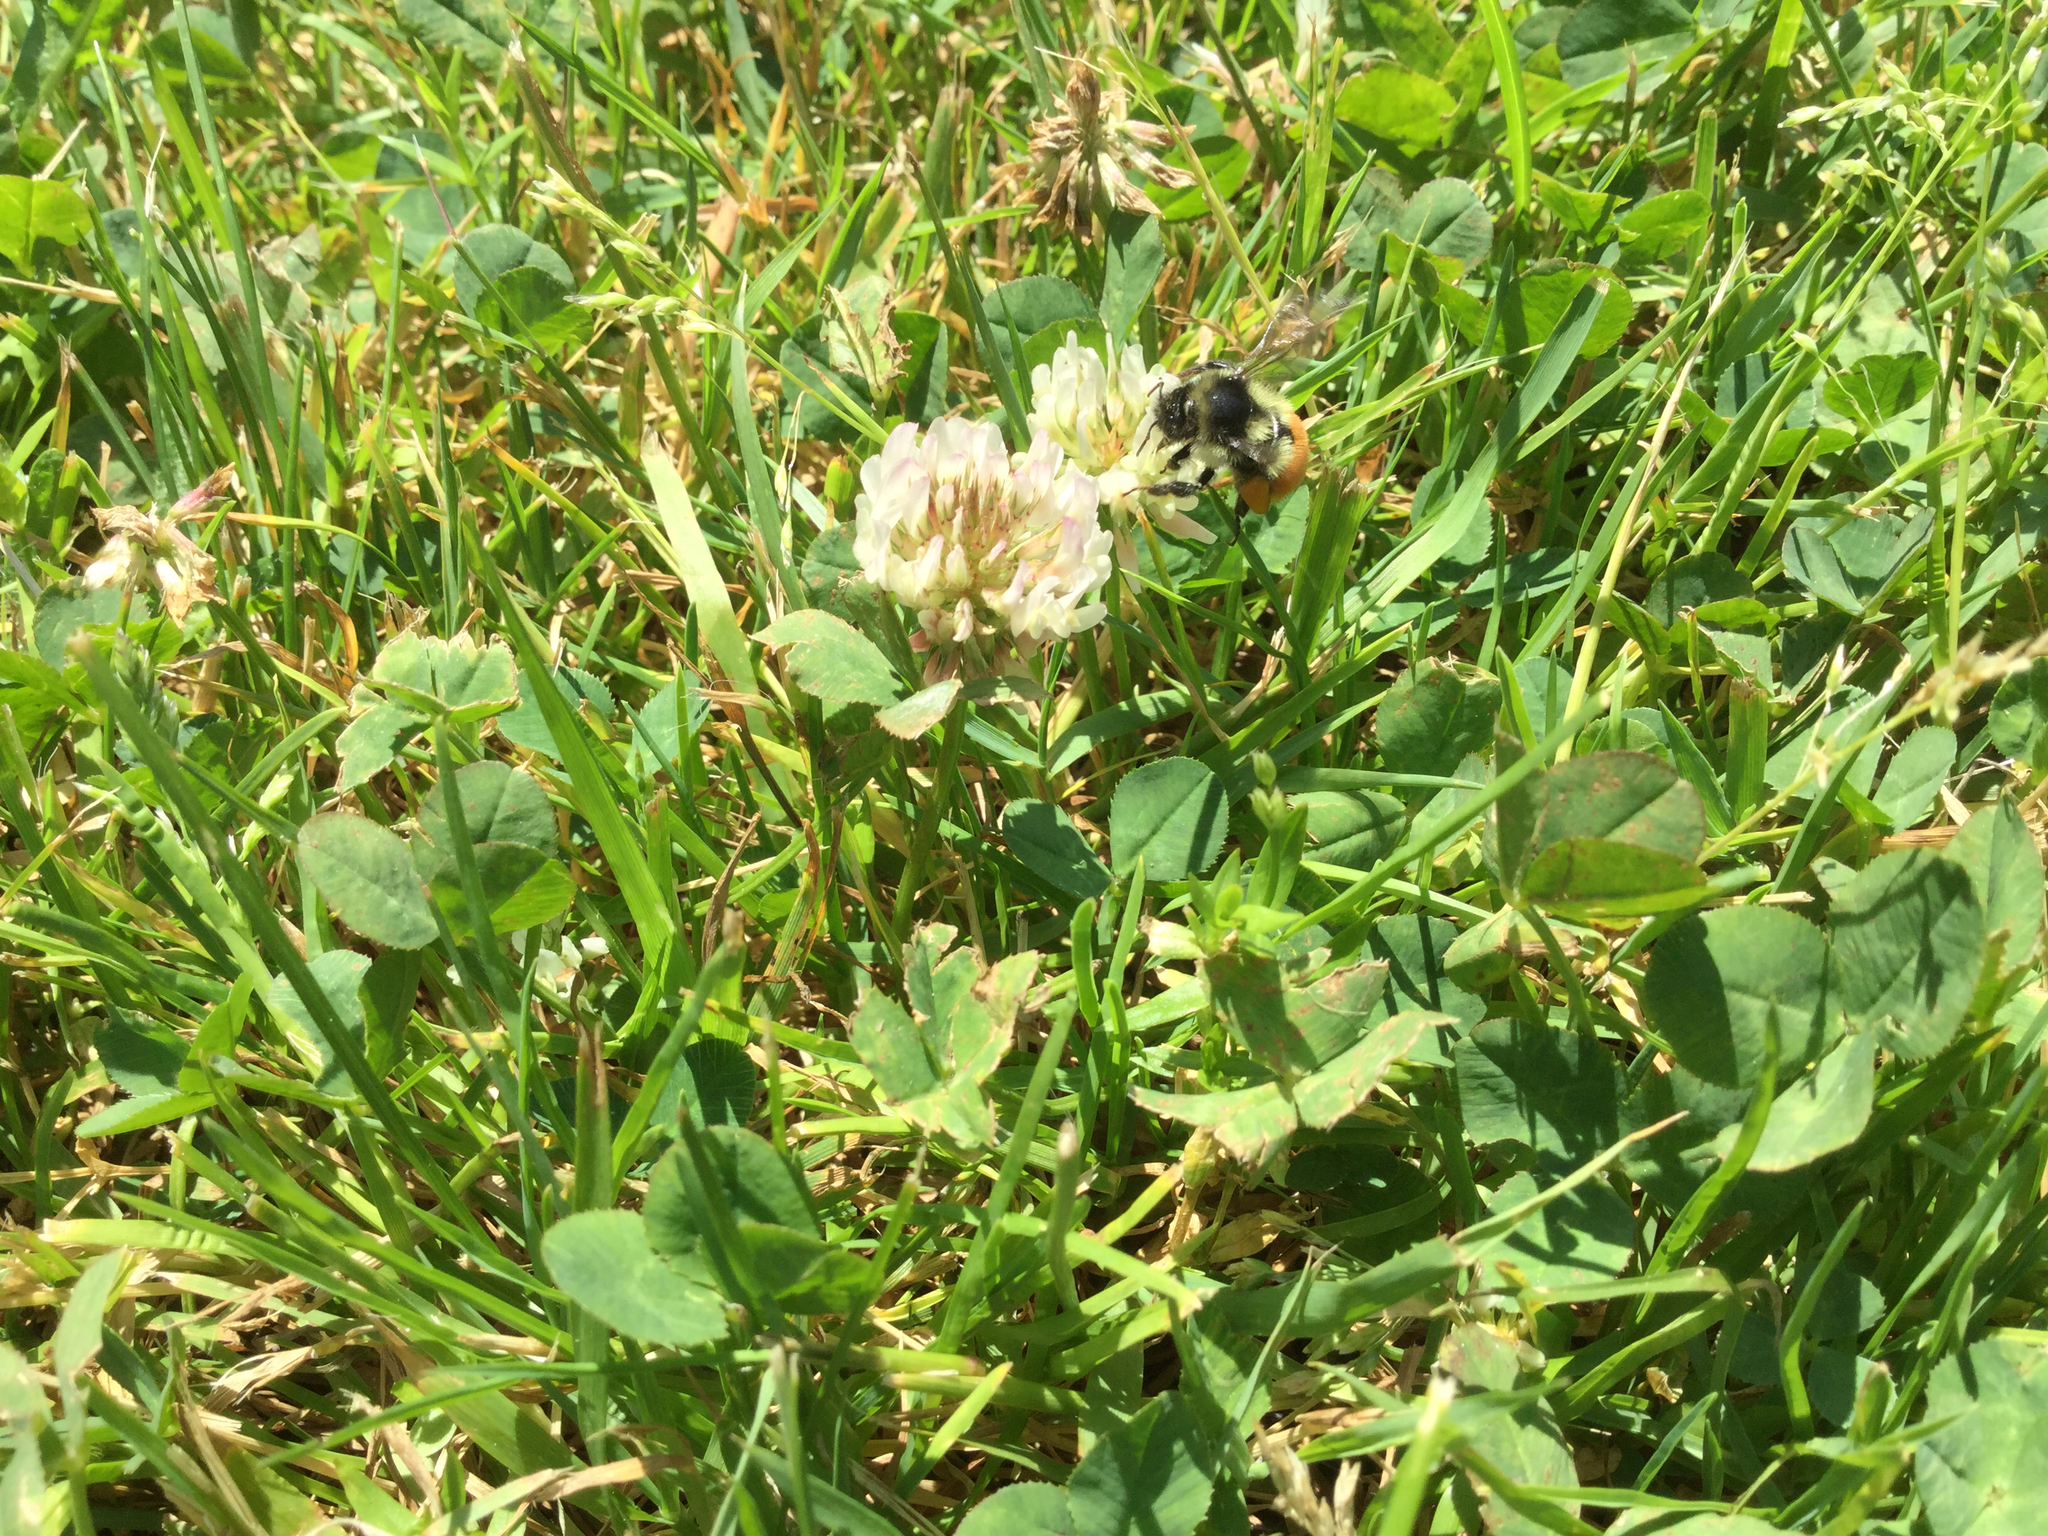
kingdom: Animalia
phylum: Arthropoda
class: Insecta
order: Hymenoptera
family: Apidae
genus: Bombus
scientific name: Bombus ternarius
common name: Tri-colored bumble bee
